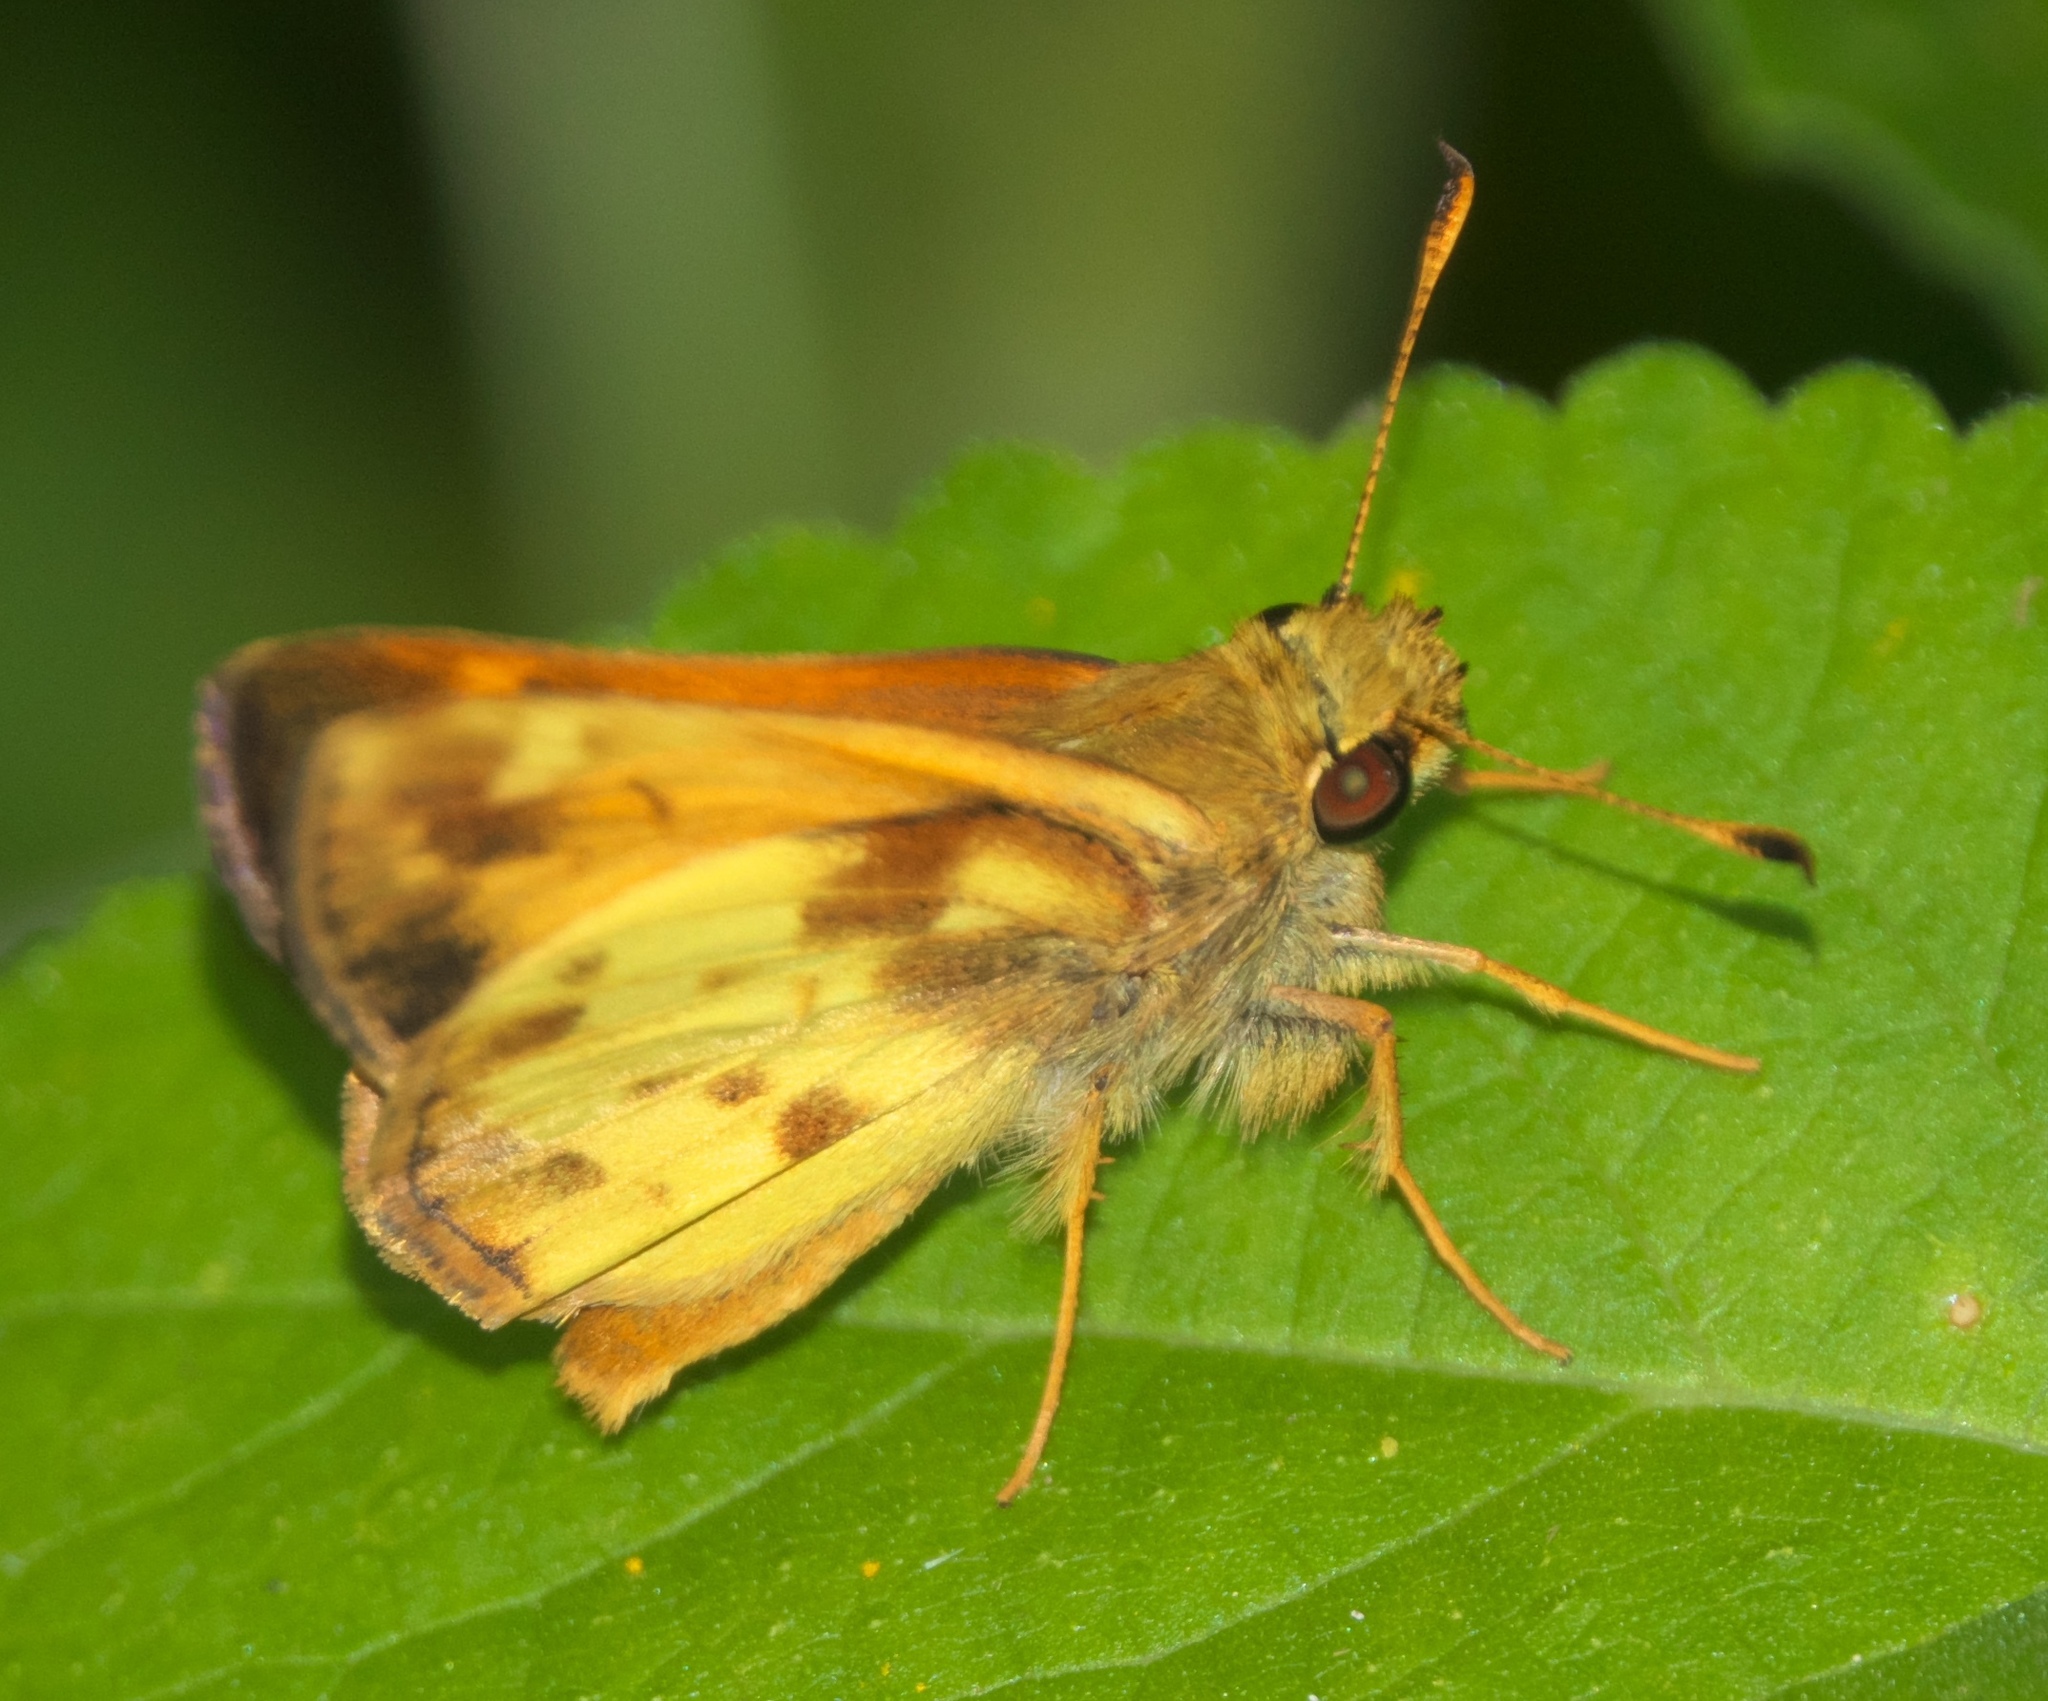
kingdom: Animalia
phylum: Arthropoda
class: Insecta
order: Lepidoptera
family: Hesperiidae
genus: Lon
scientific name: Lon zabulon
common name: Zabulon skipper
